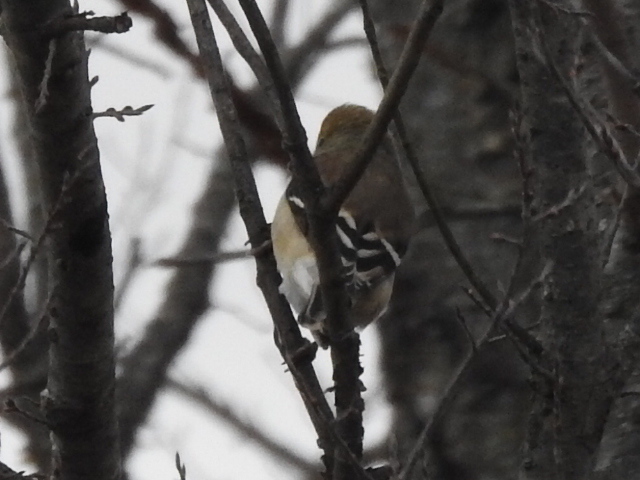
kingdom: Animalia
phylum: Chordata
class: Aves
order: Passeriformes
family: Fringillidae
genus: Spinus
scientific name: Spinus tristis
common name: American goldfinch
